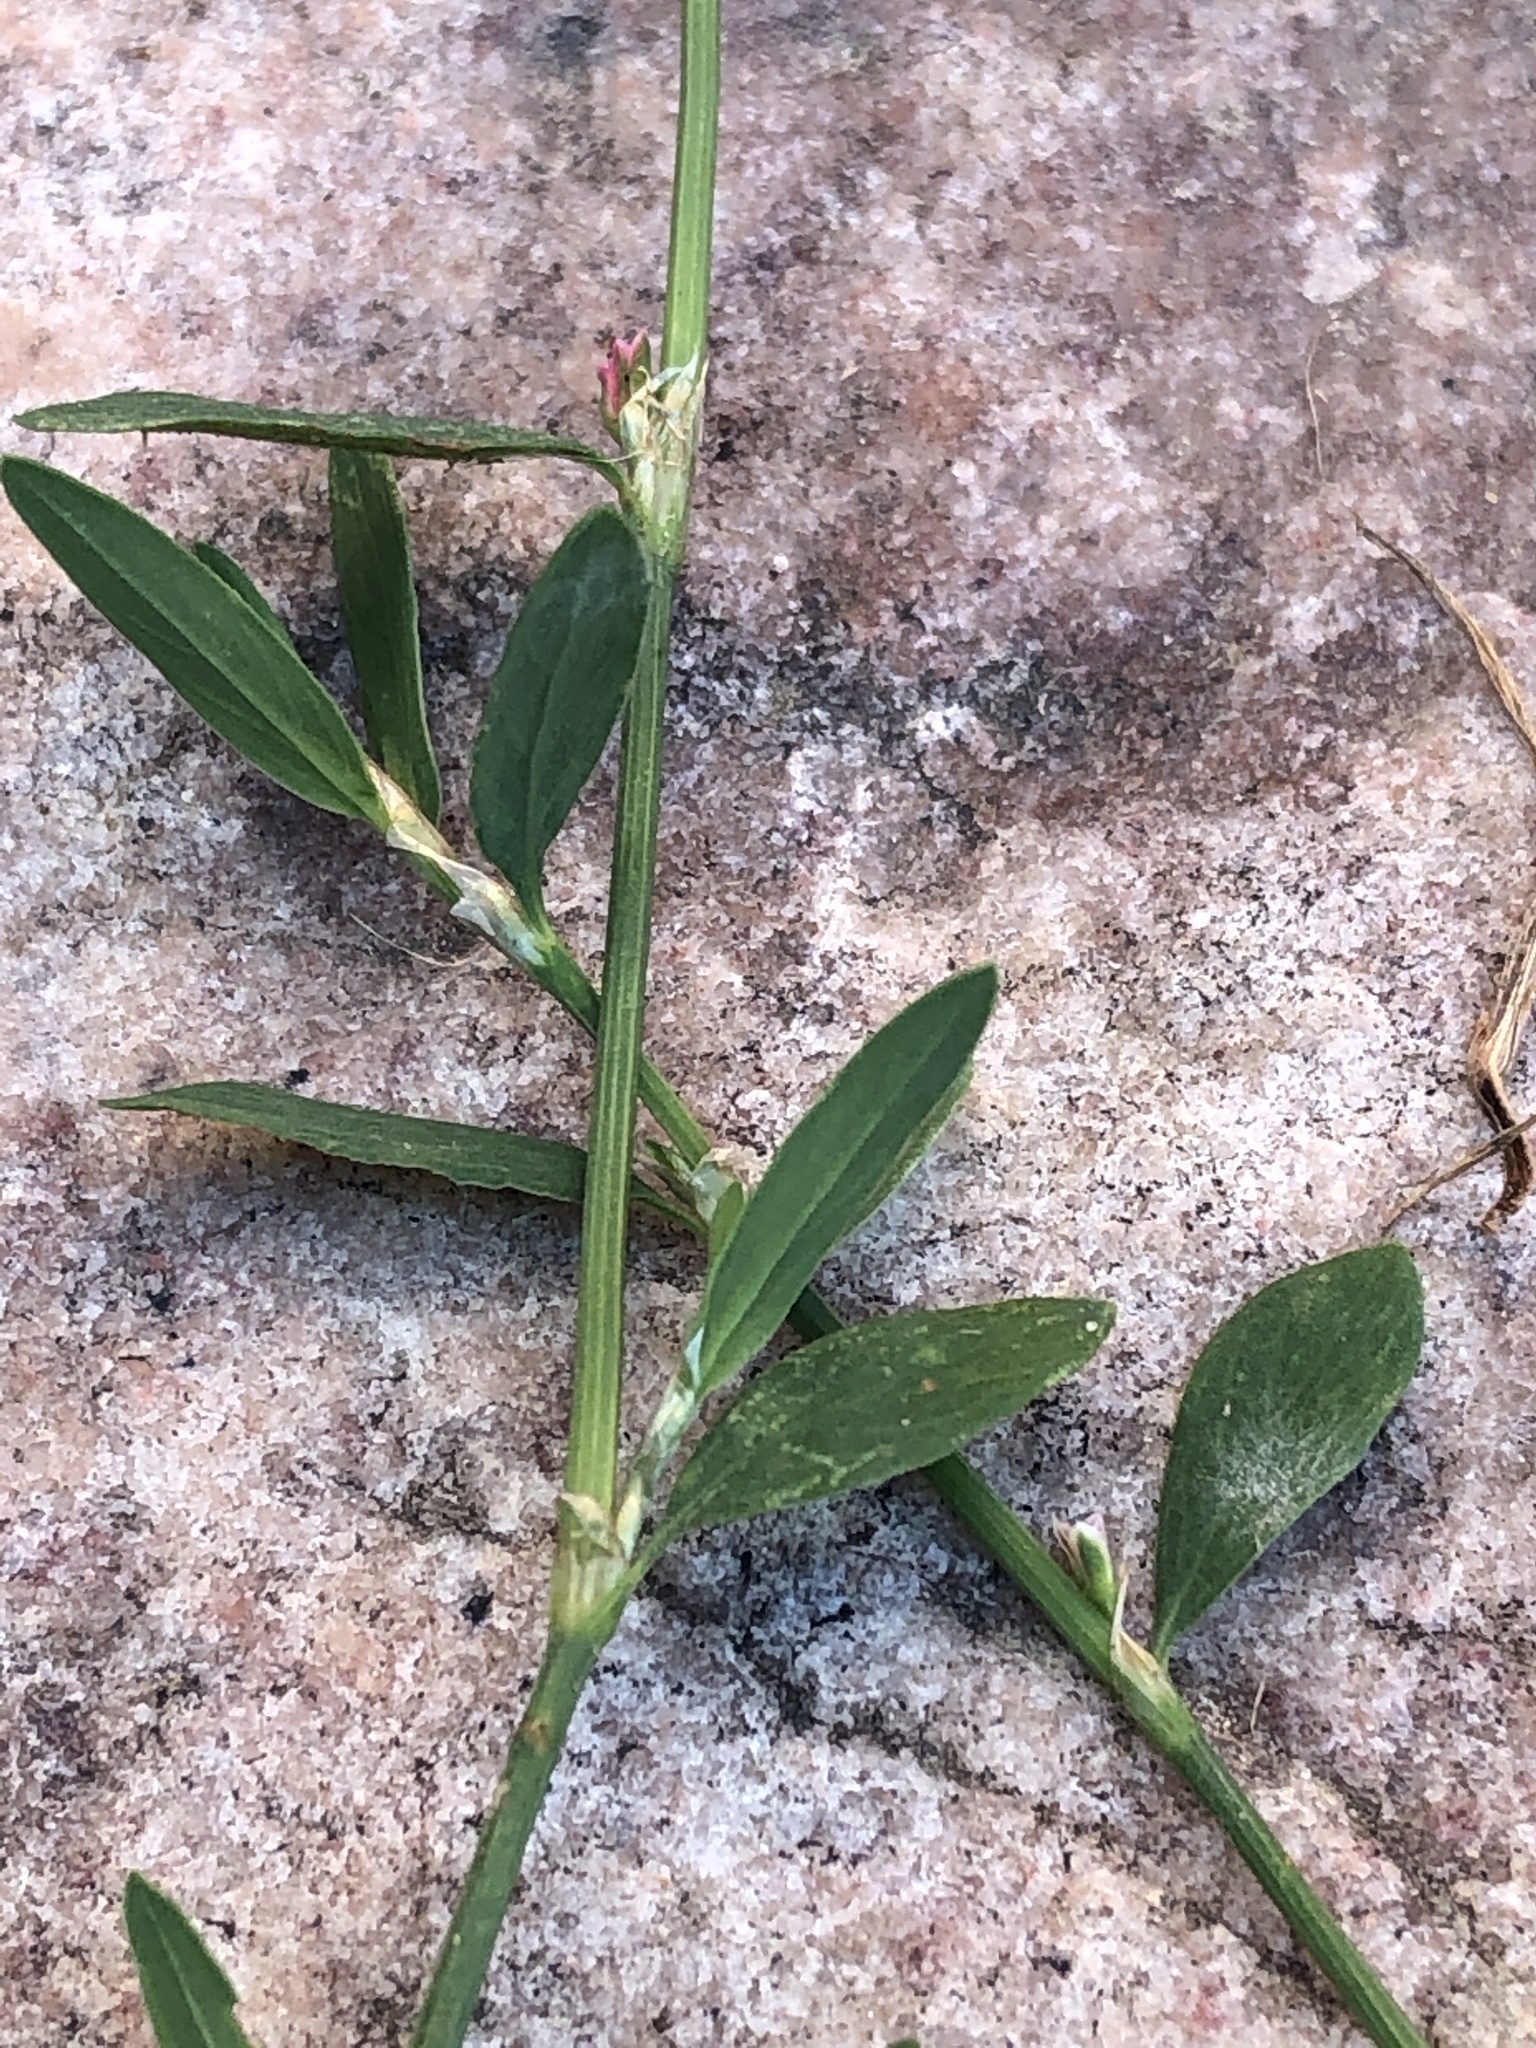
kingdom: Plantae
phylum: Tracheophyta
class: Magnoliopsida
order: Caryophyllales
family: Polygonaceae
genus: Polygonum
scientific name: Polygonum aviculare
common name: Prostrate knotweed
